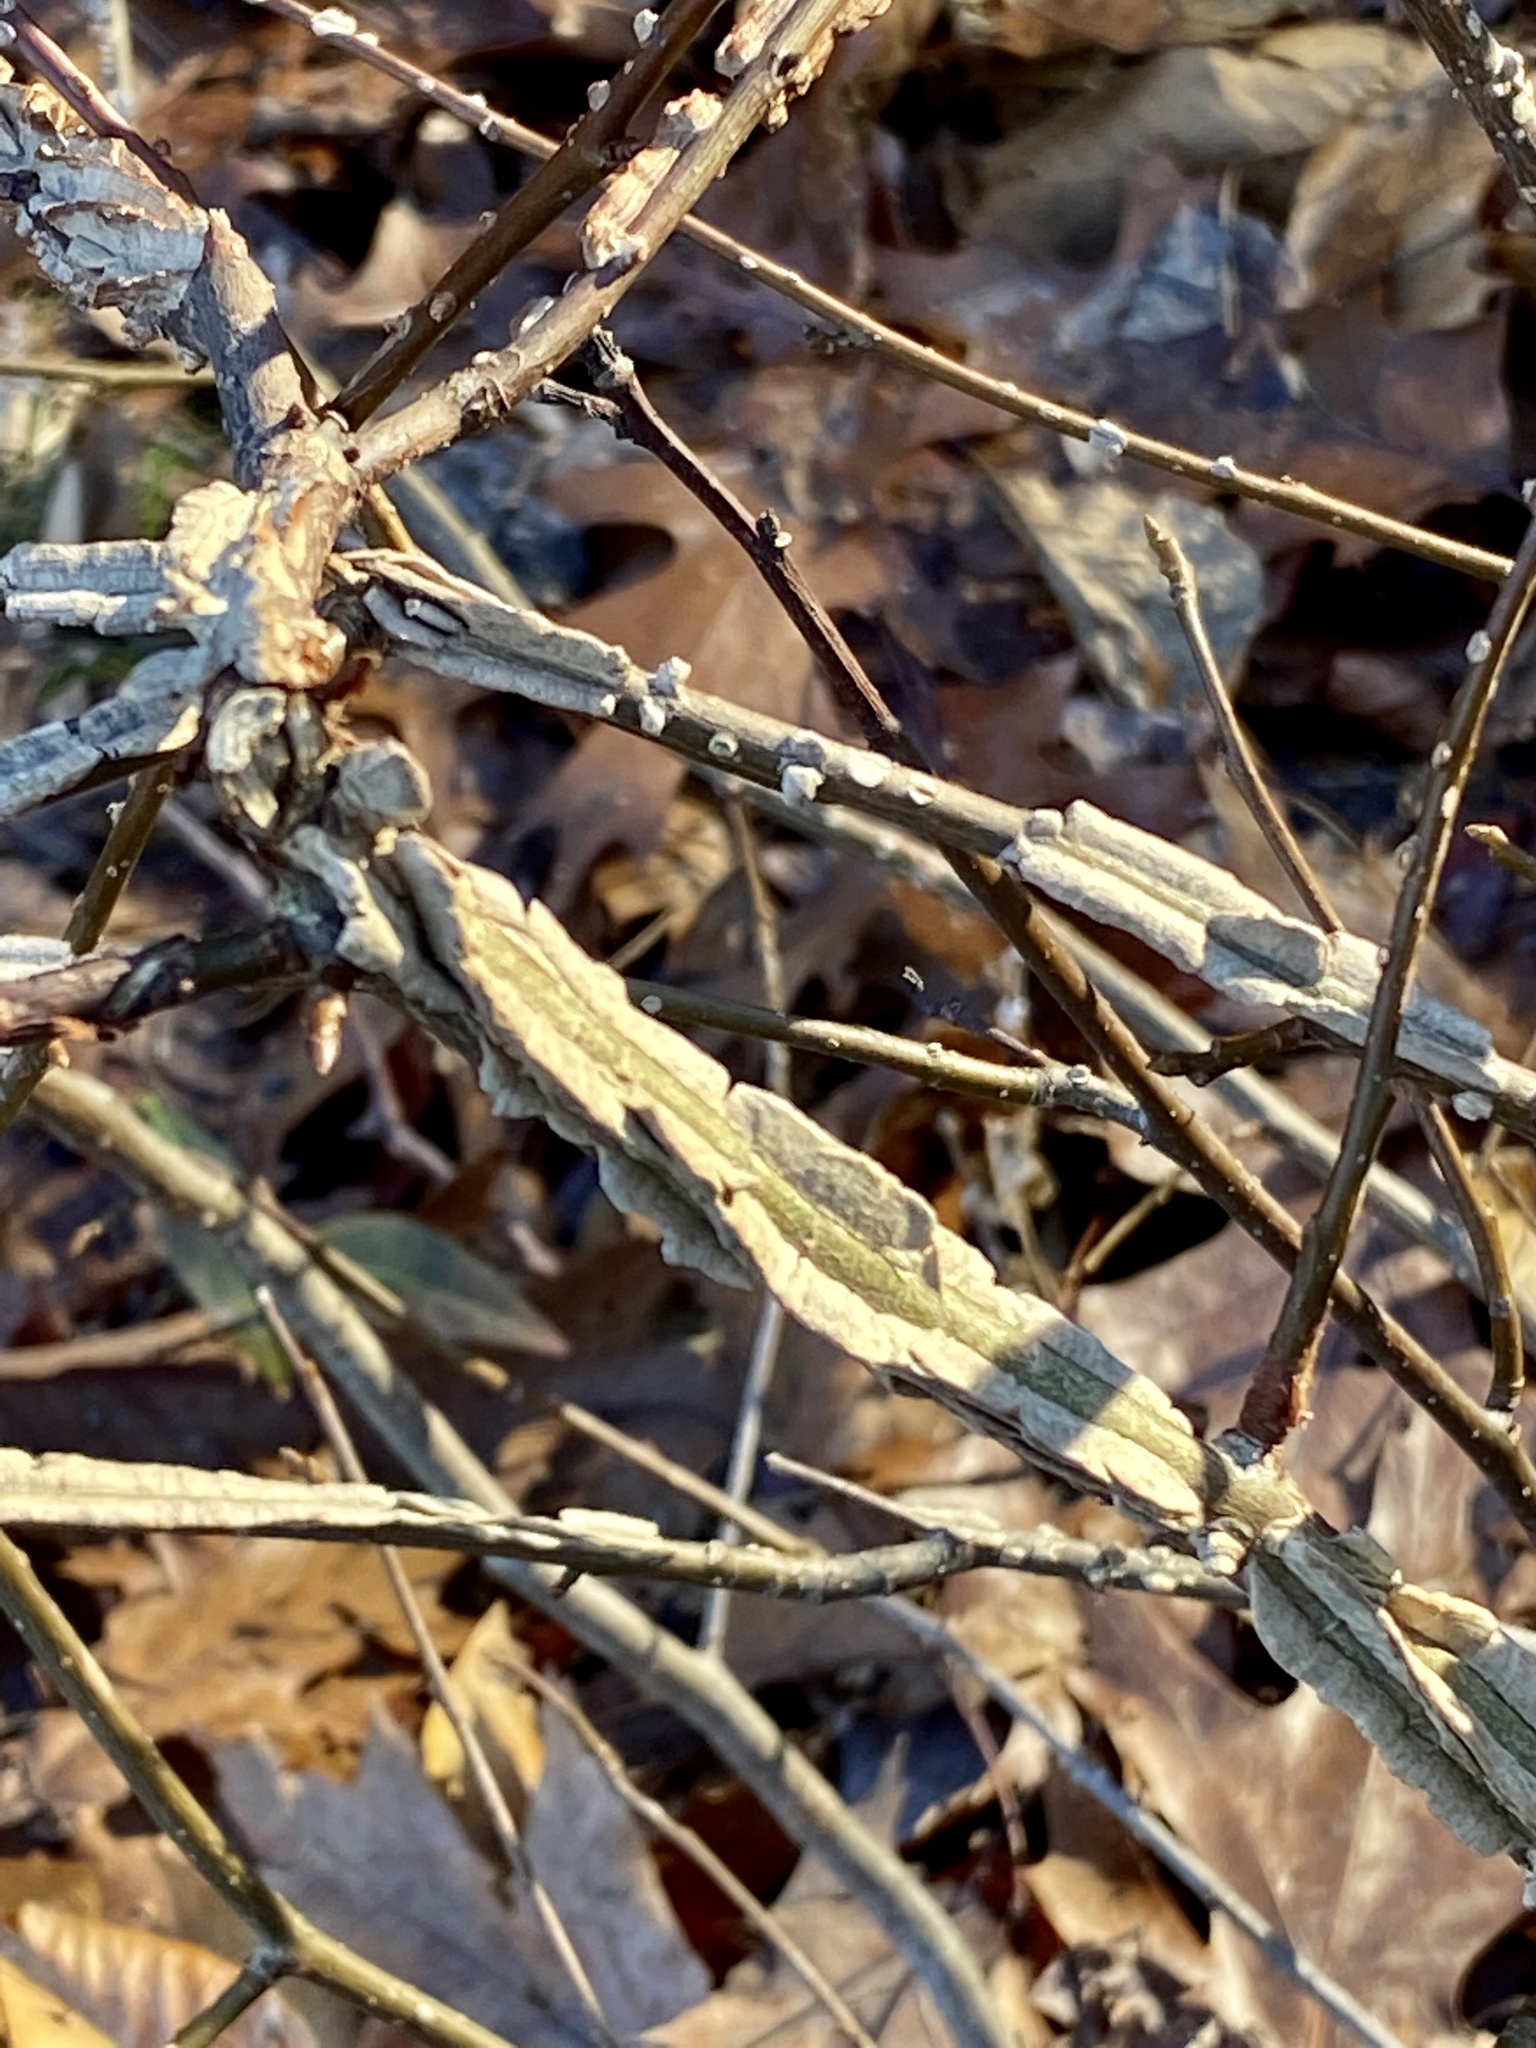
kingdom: Plantae
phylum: Tracheophyta
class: Magnoliopsida
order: Saxifragales
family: Altingiaceae
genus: Liquidambar
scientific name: Liquidambar styraciflua
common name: Sweet gum
